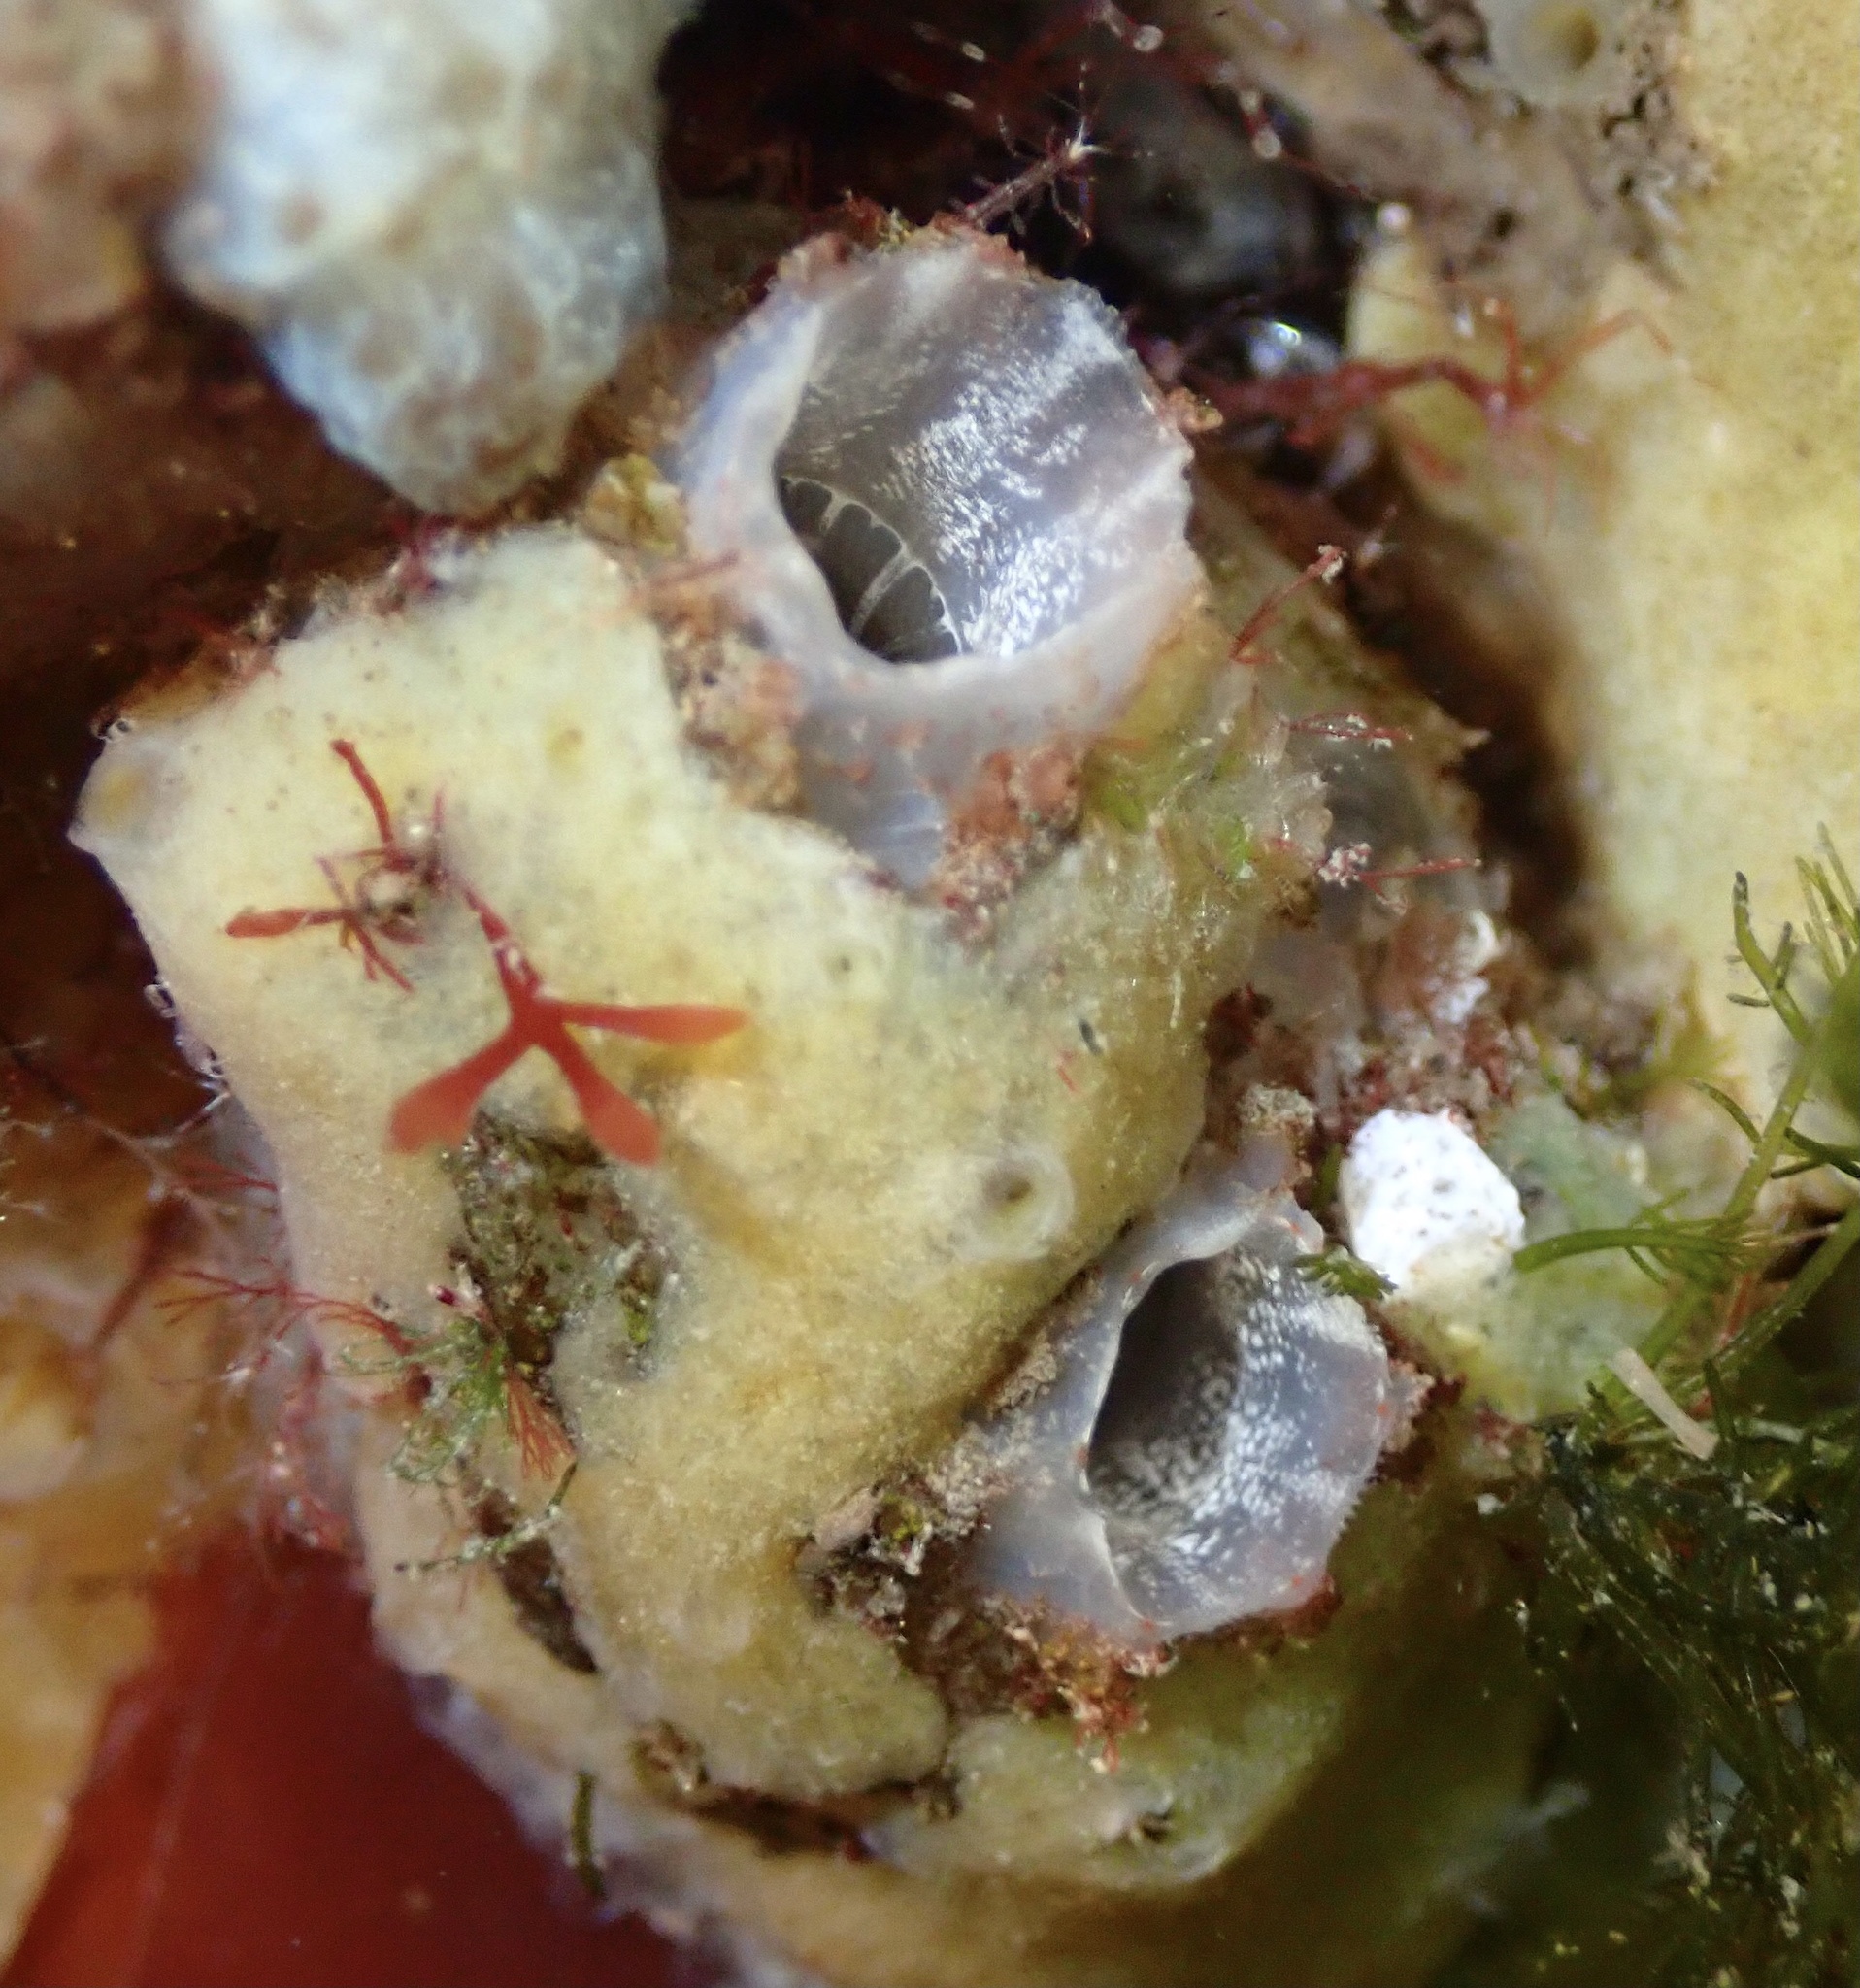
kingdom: Animalia
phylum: Chordata
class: Ascidiacea
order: Phlebobranchia
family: Ascidiidae
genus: Ascidiella
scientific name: Ascidiella aspersa
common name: Dirty sea-squirt
